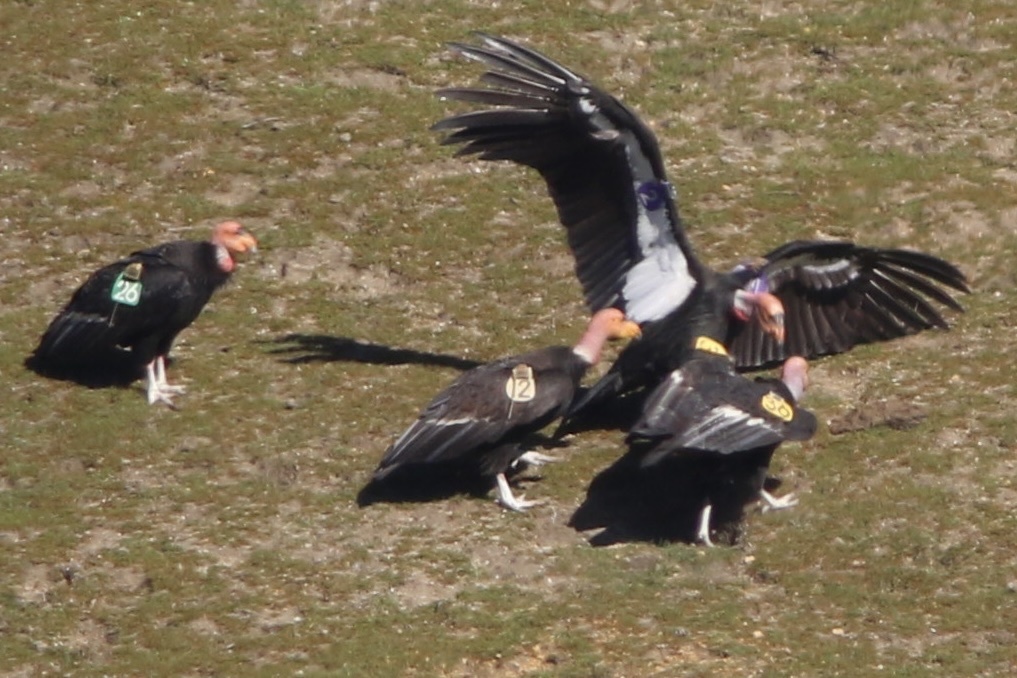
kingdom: Animalia
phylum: Chordata
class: Aves
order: Accipitriformes
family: Cathartidae
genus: Gymnogyps
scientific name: Gymnogyps californianus
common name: California condor
